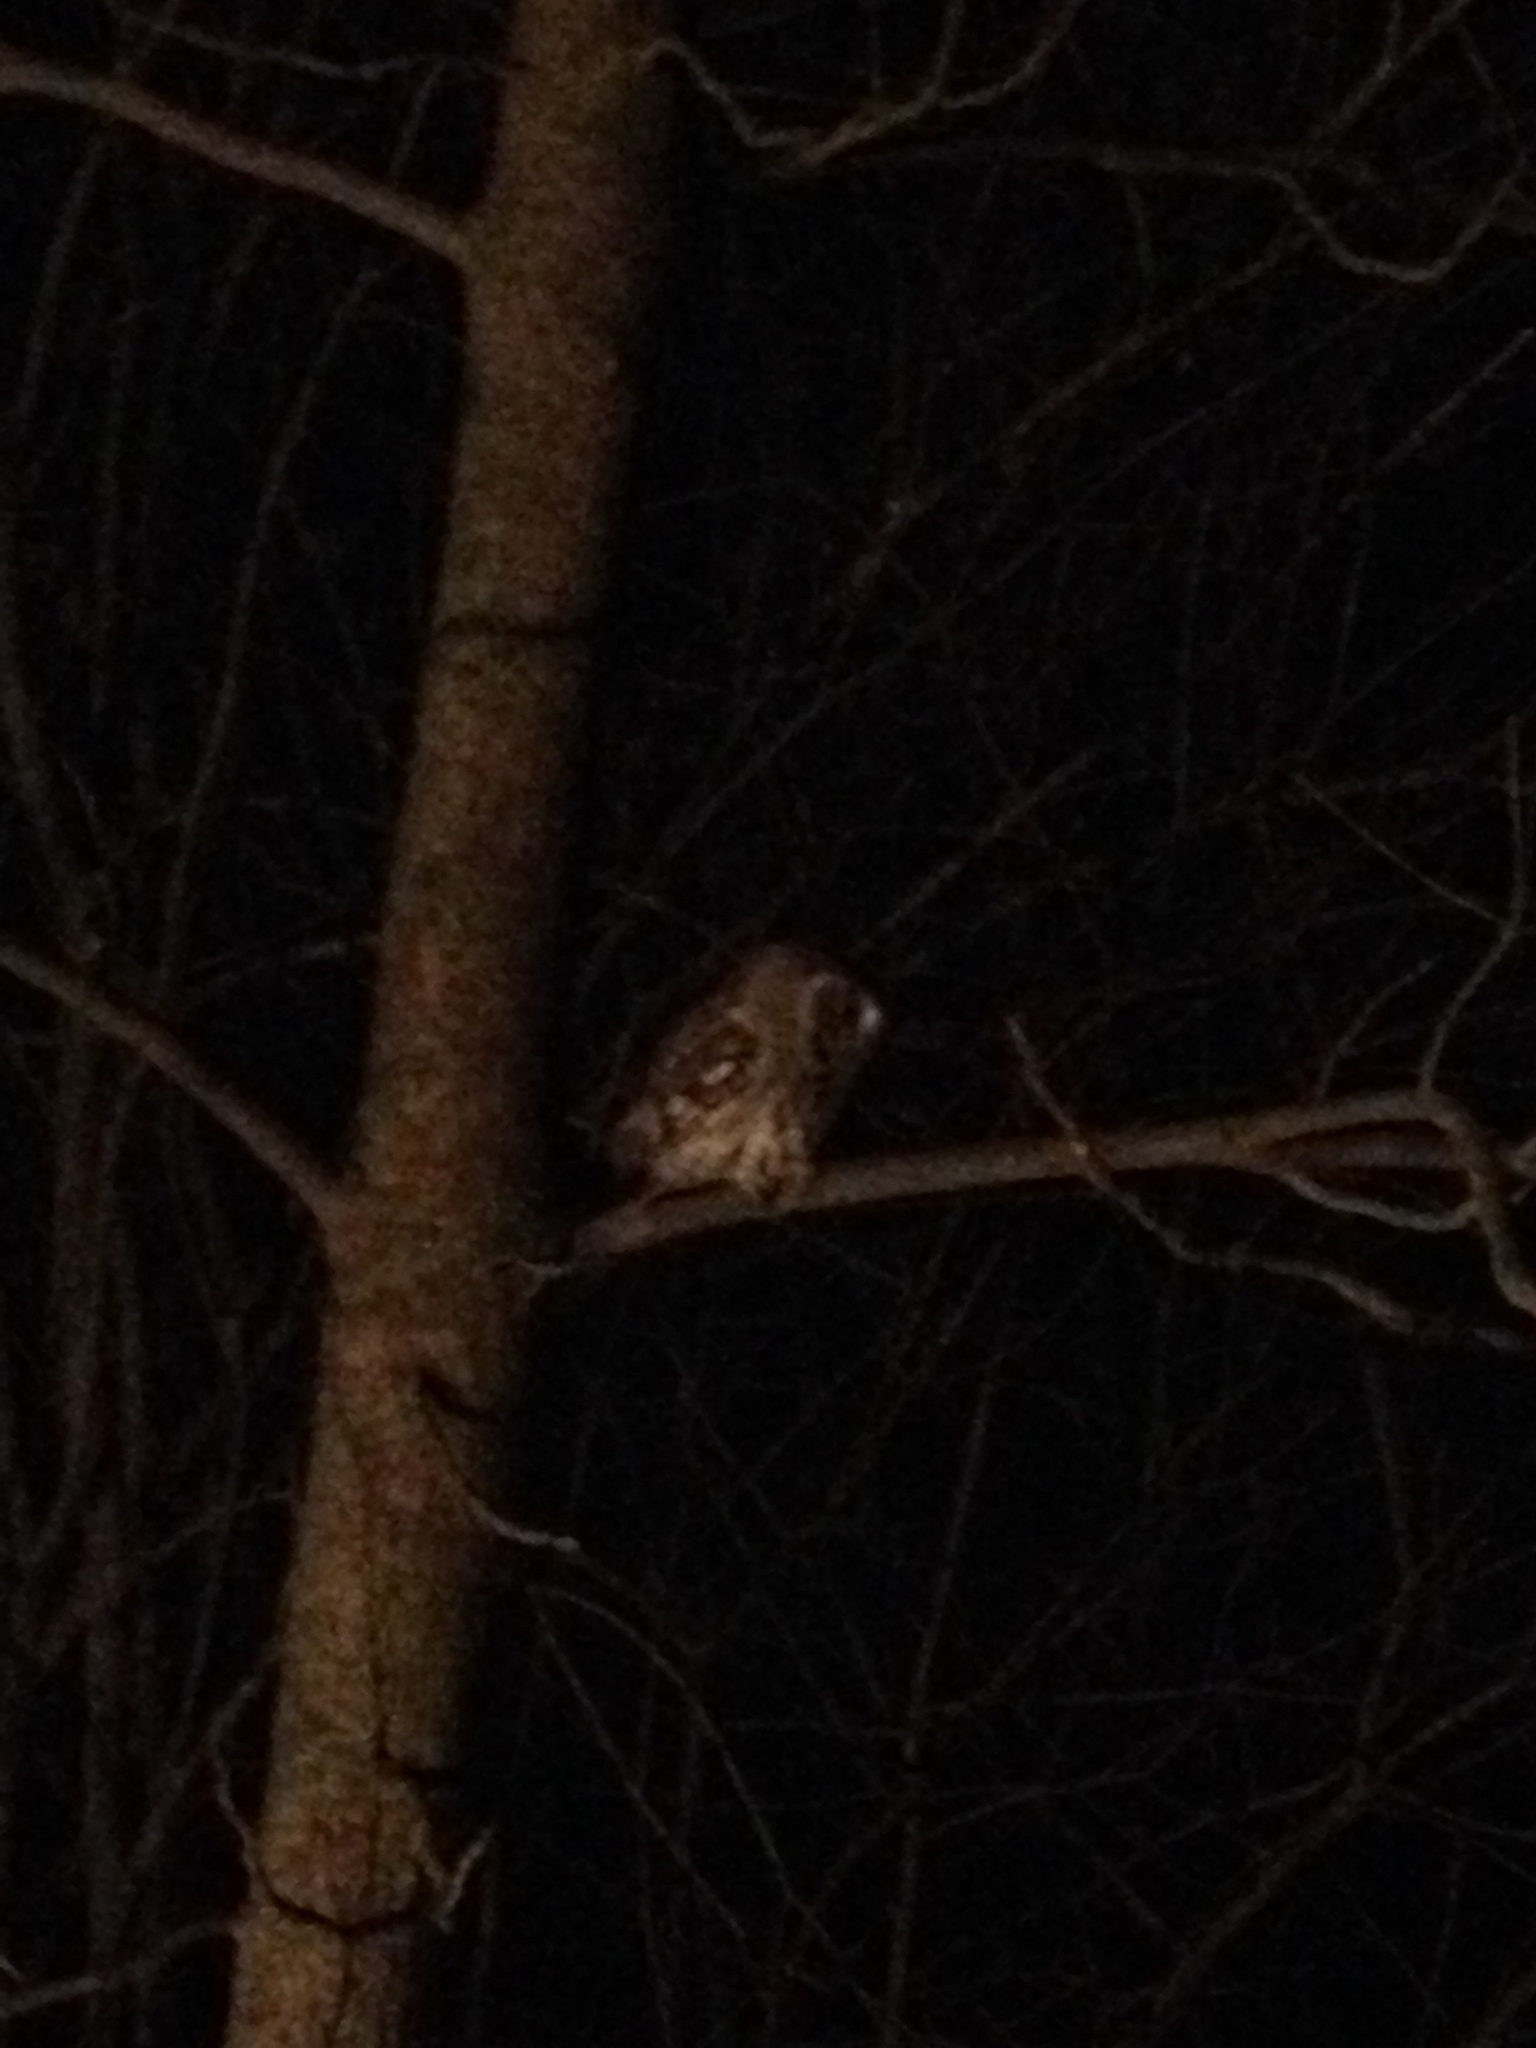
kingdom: Animalia
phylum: Chordata
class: Aves
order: Strigiformes
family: Strigidae
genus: Megascops
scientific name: Megascops asio
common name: Eastern screech-owl
